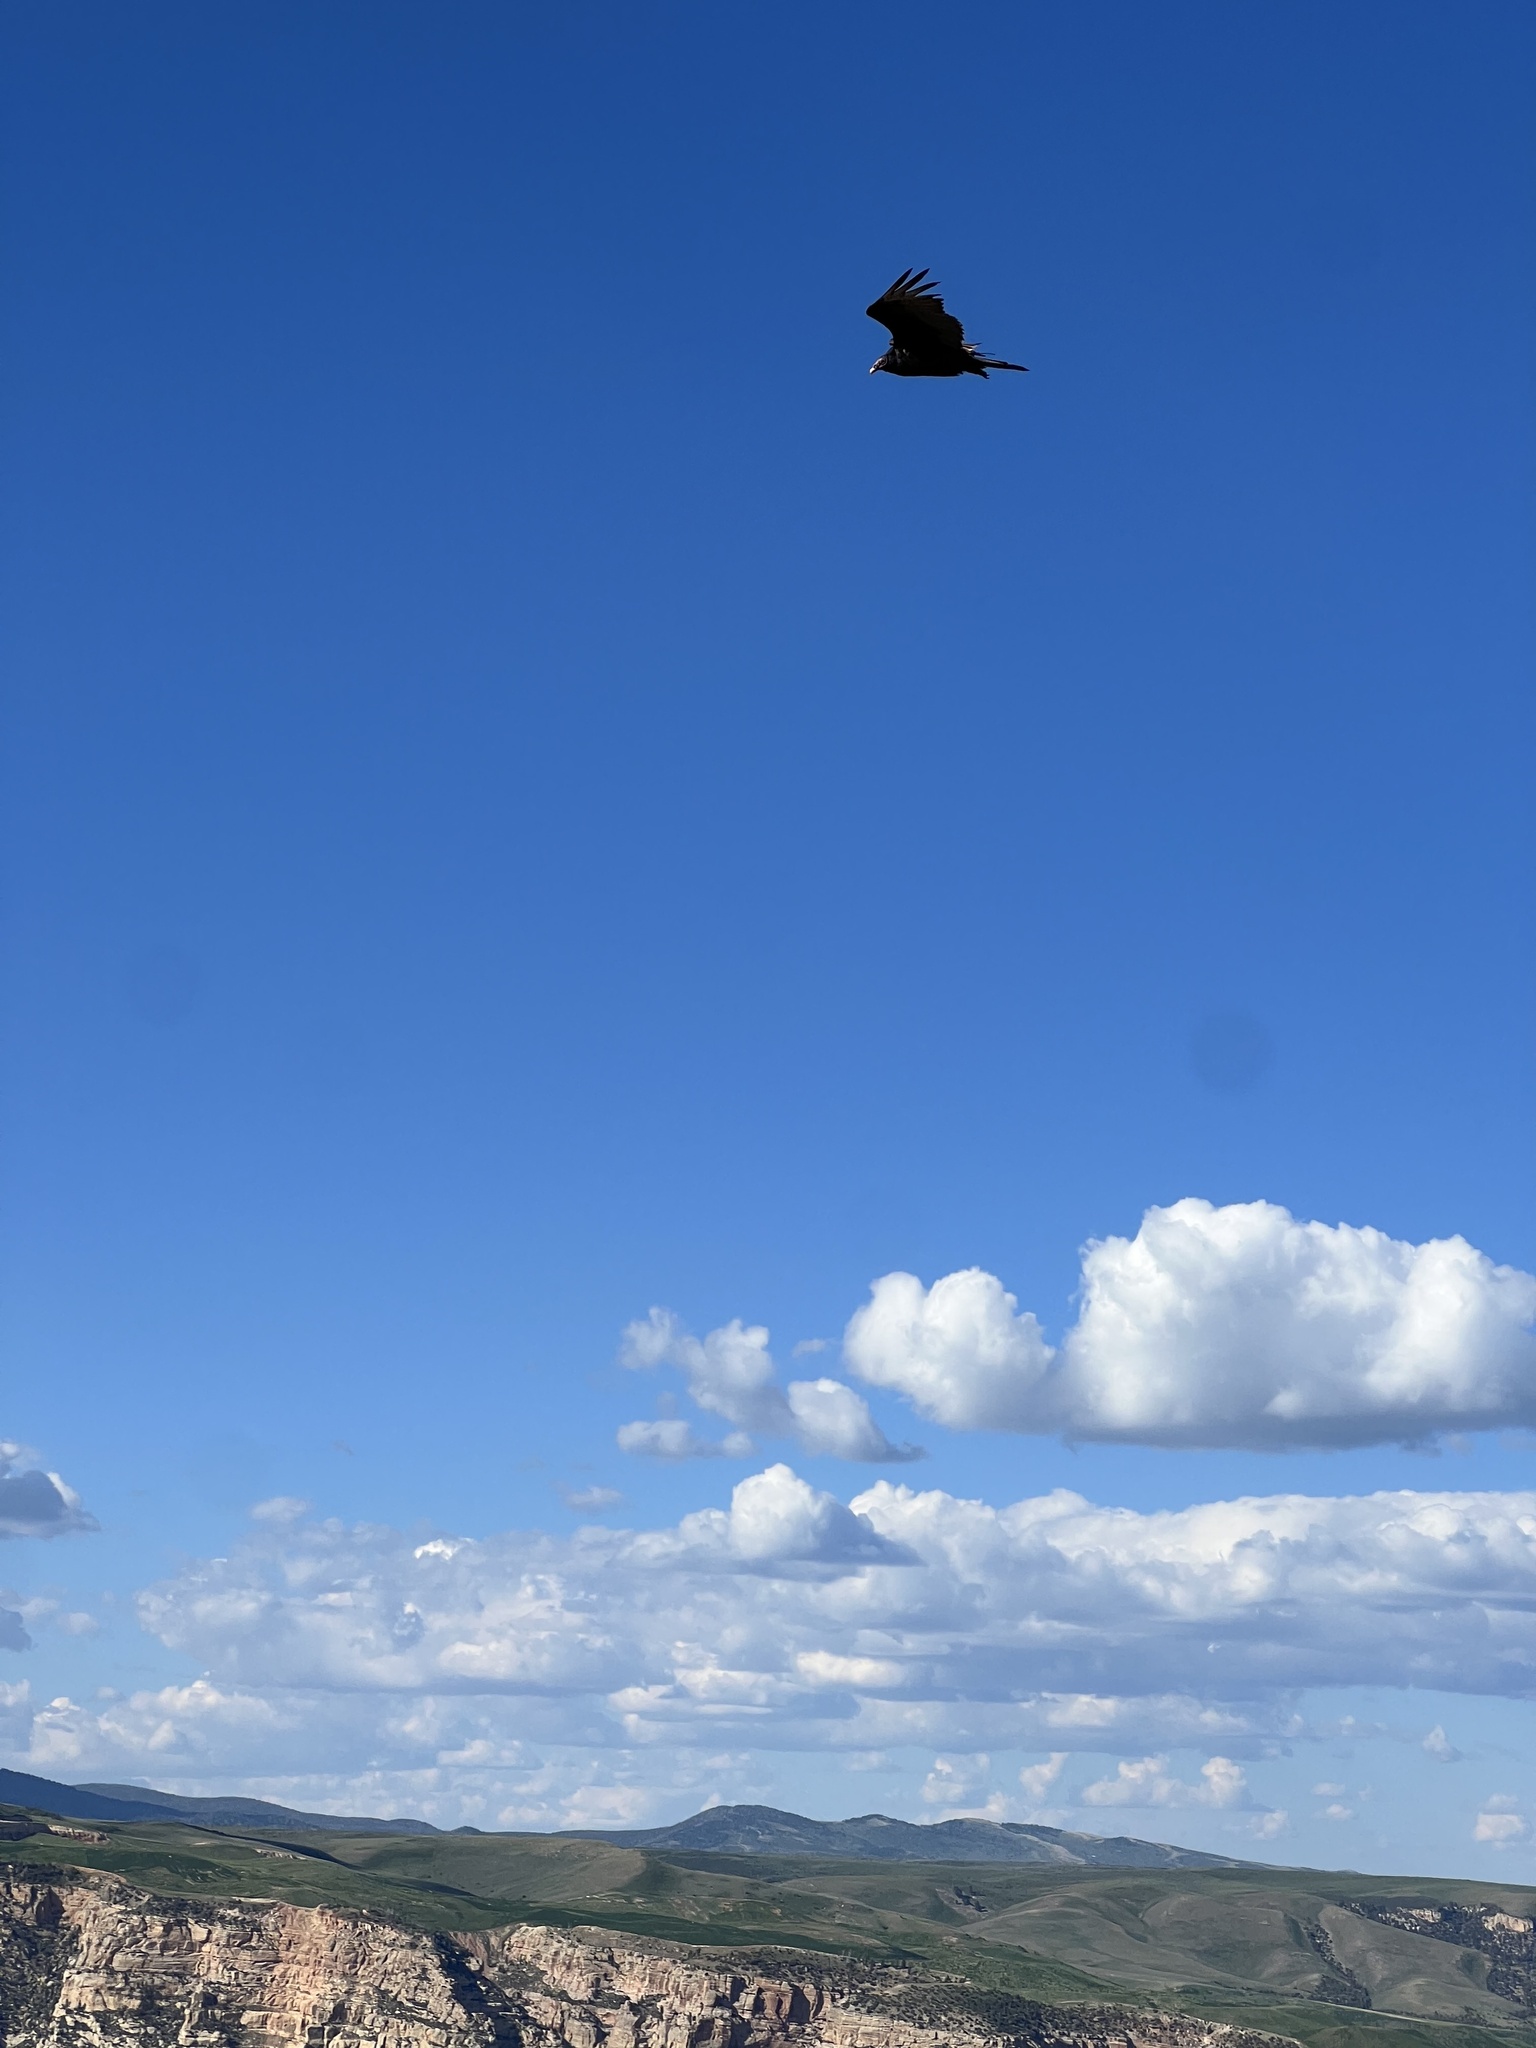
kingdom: Animalia
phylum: Chordata
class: Aves
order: Accipitriformes
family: Cathartidae
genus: Cathartes
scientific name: Cathartes aura
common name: Turkey vulture
